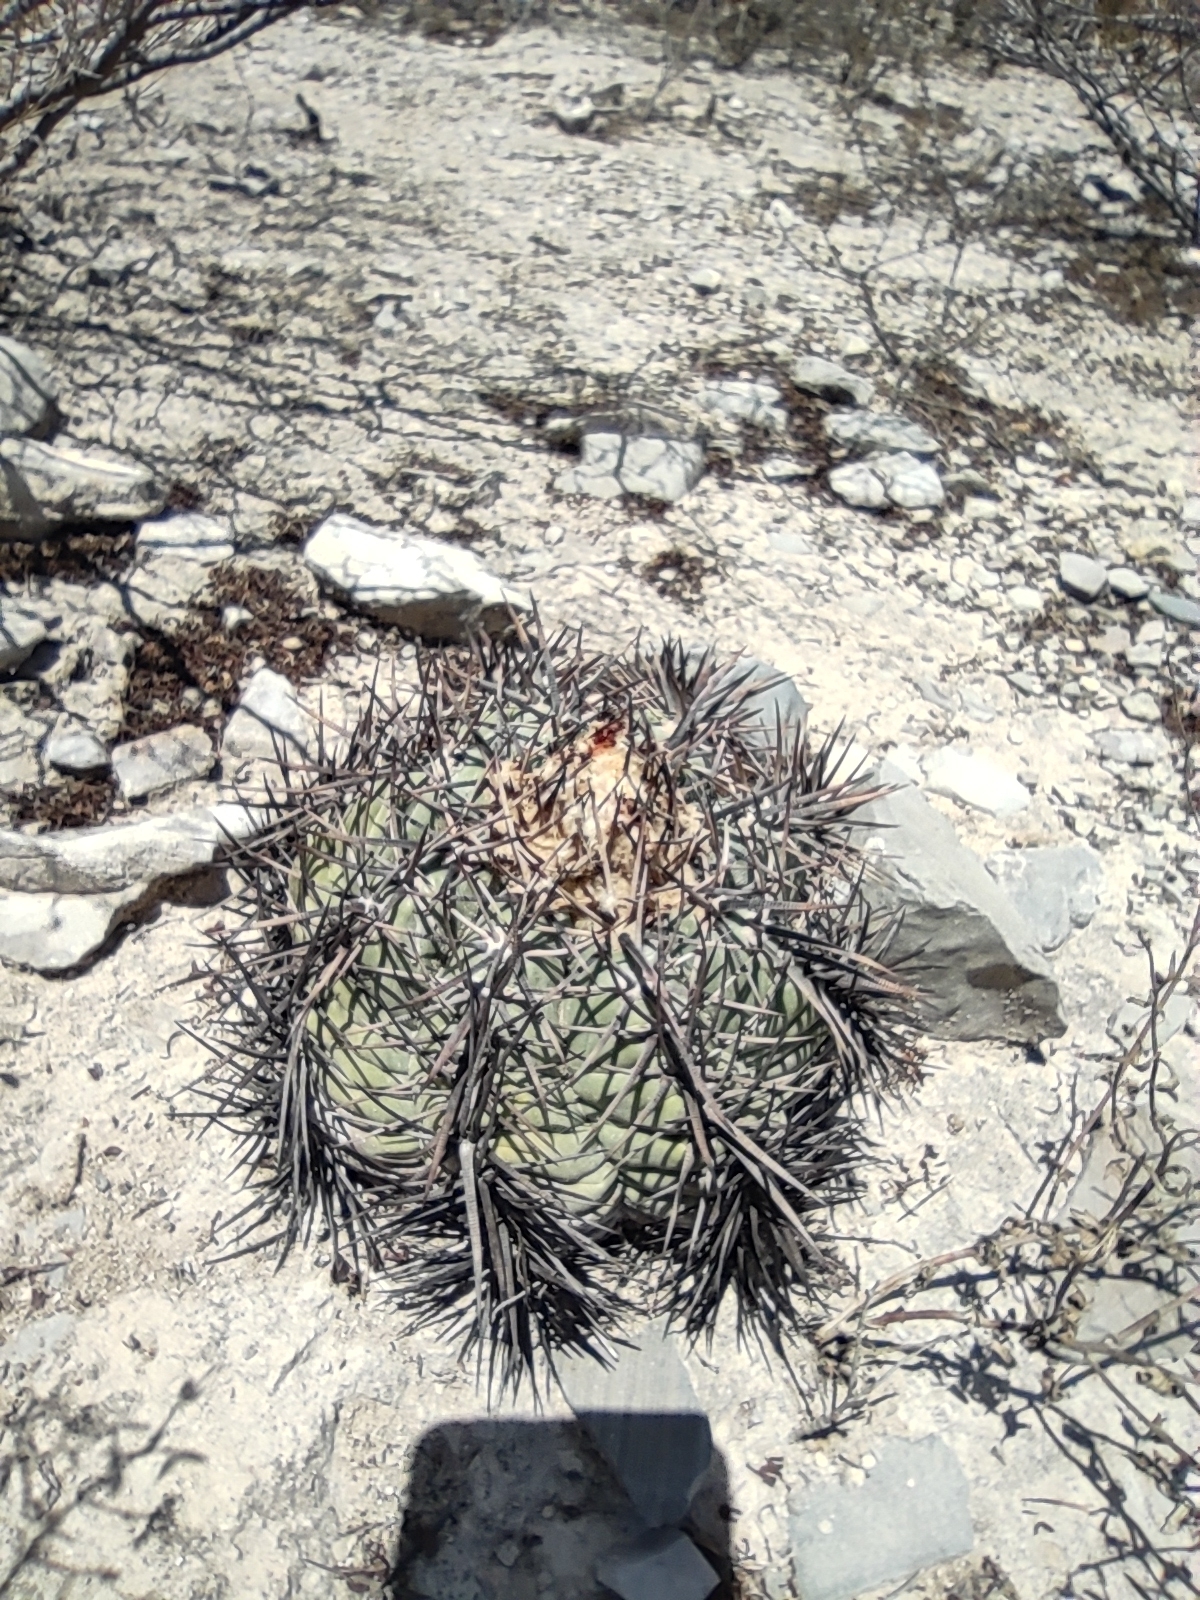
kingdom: Plantae
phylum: Tracheophyta
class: Magnoliopsida
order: Caryophyllales
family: Cactaceae
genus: Echinocactus
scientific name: Echinocactus horizonthalonius
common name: Devilshead
